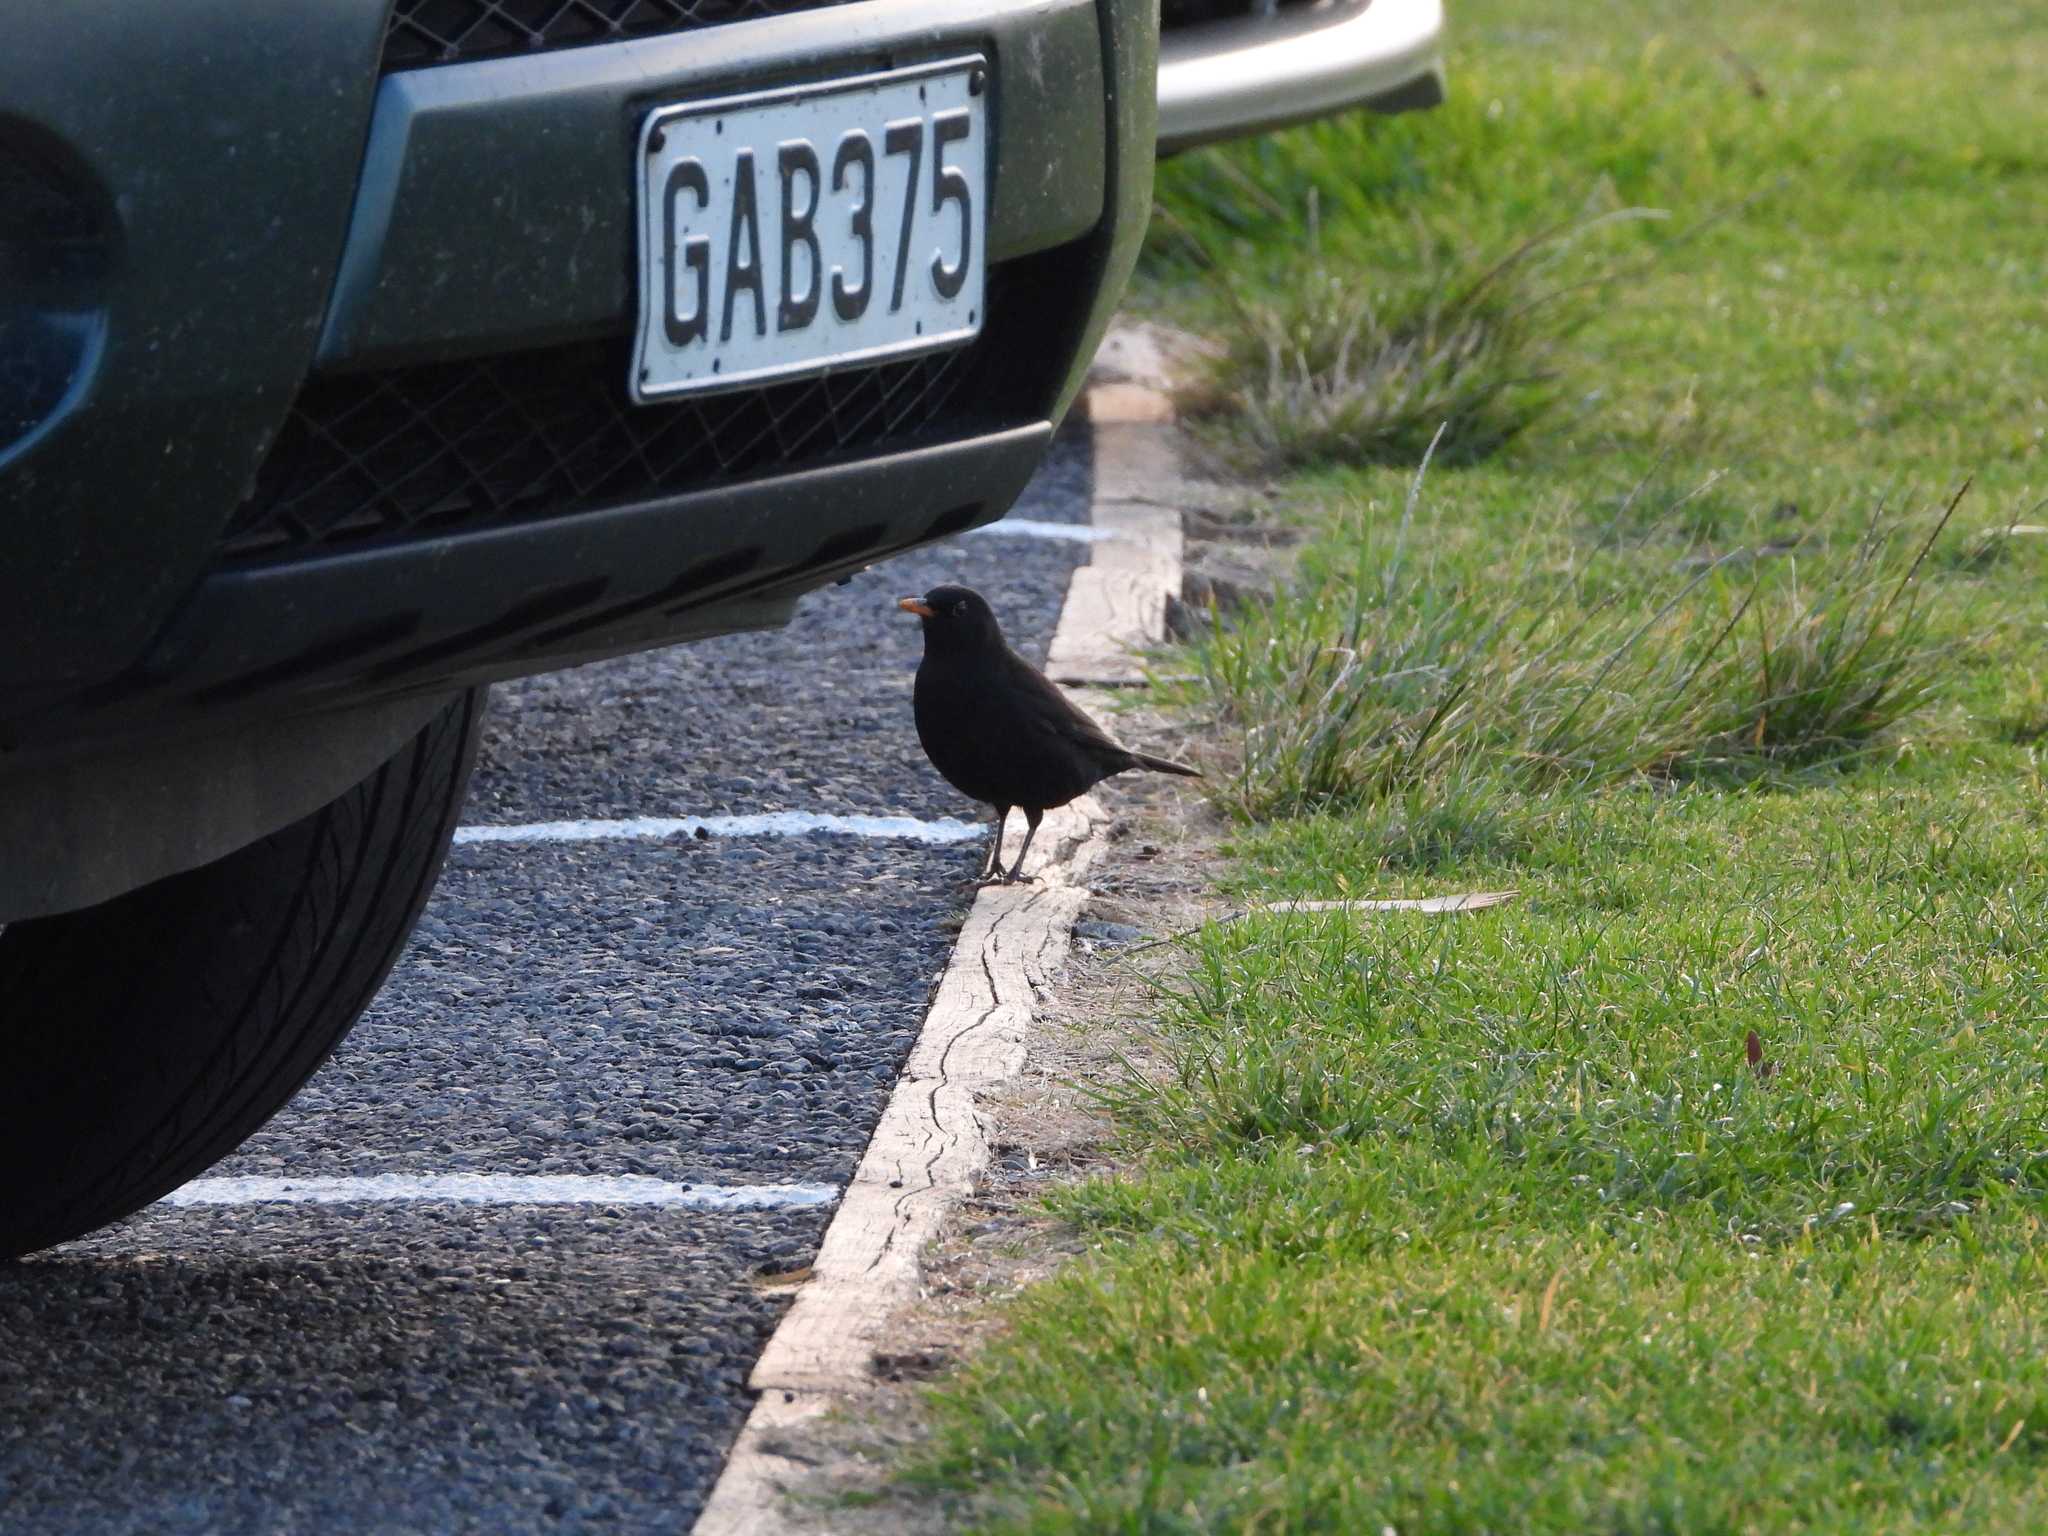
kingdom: Animalia
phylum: Chordata
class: Aves
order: Passeriformes
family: Turdidae
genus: Turdus
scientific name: Turdus merula
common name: Common blackbird
